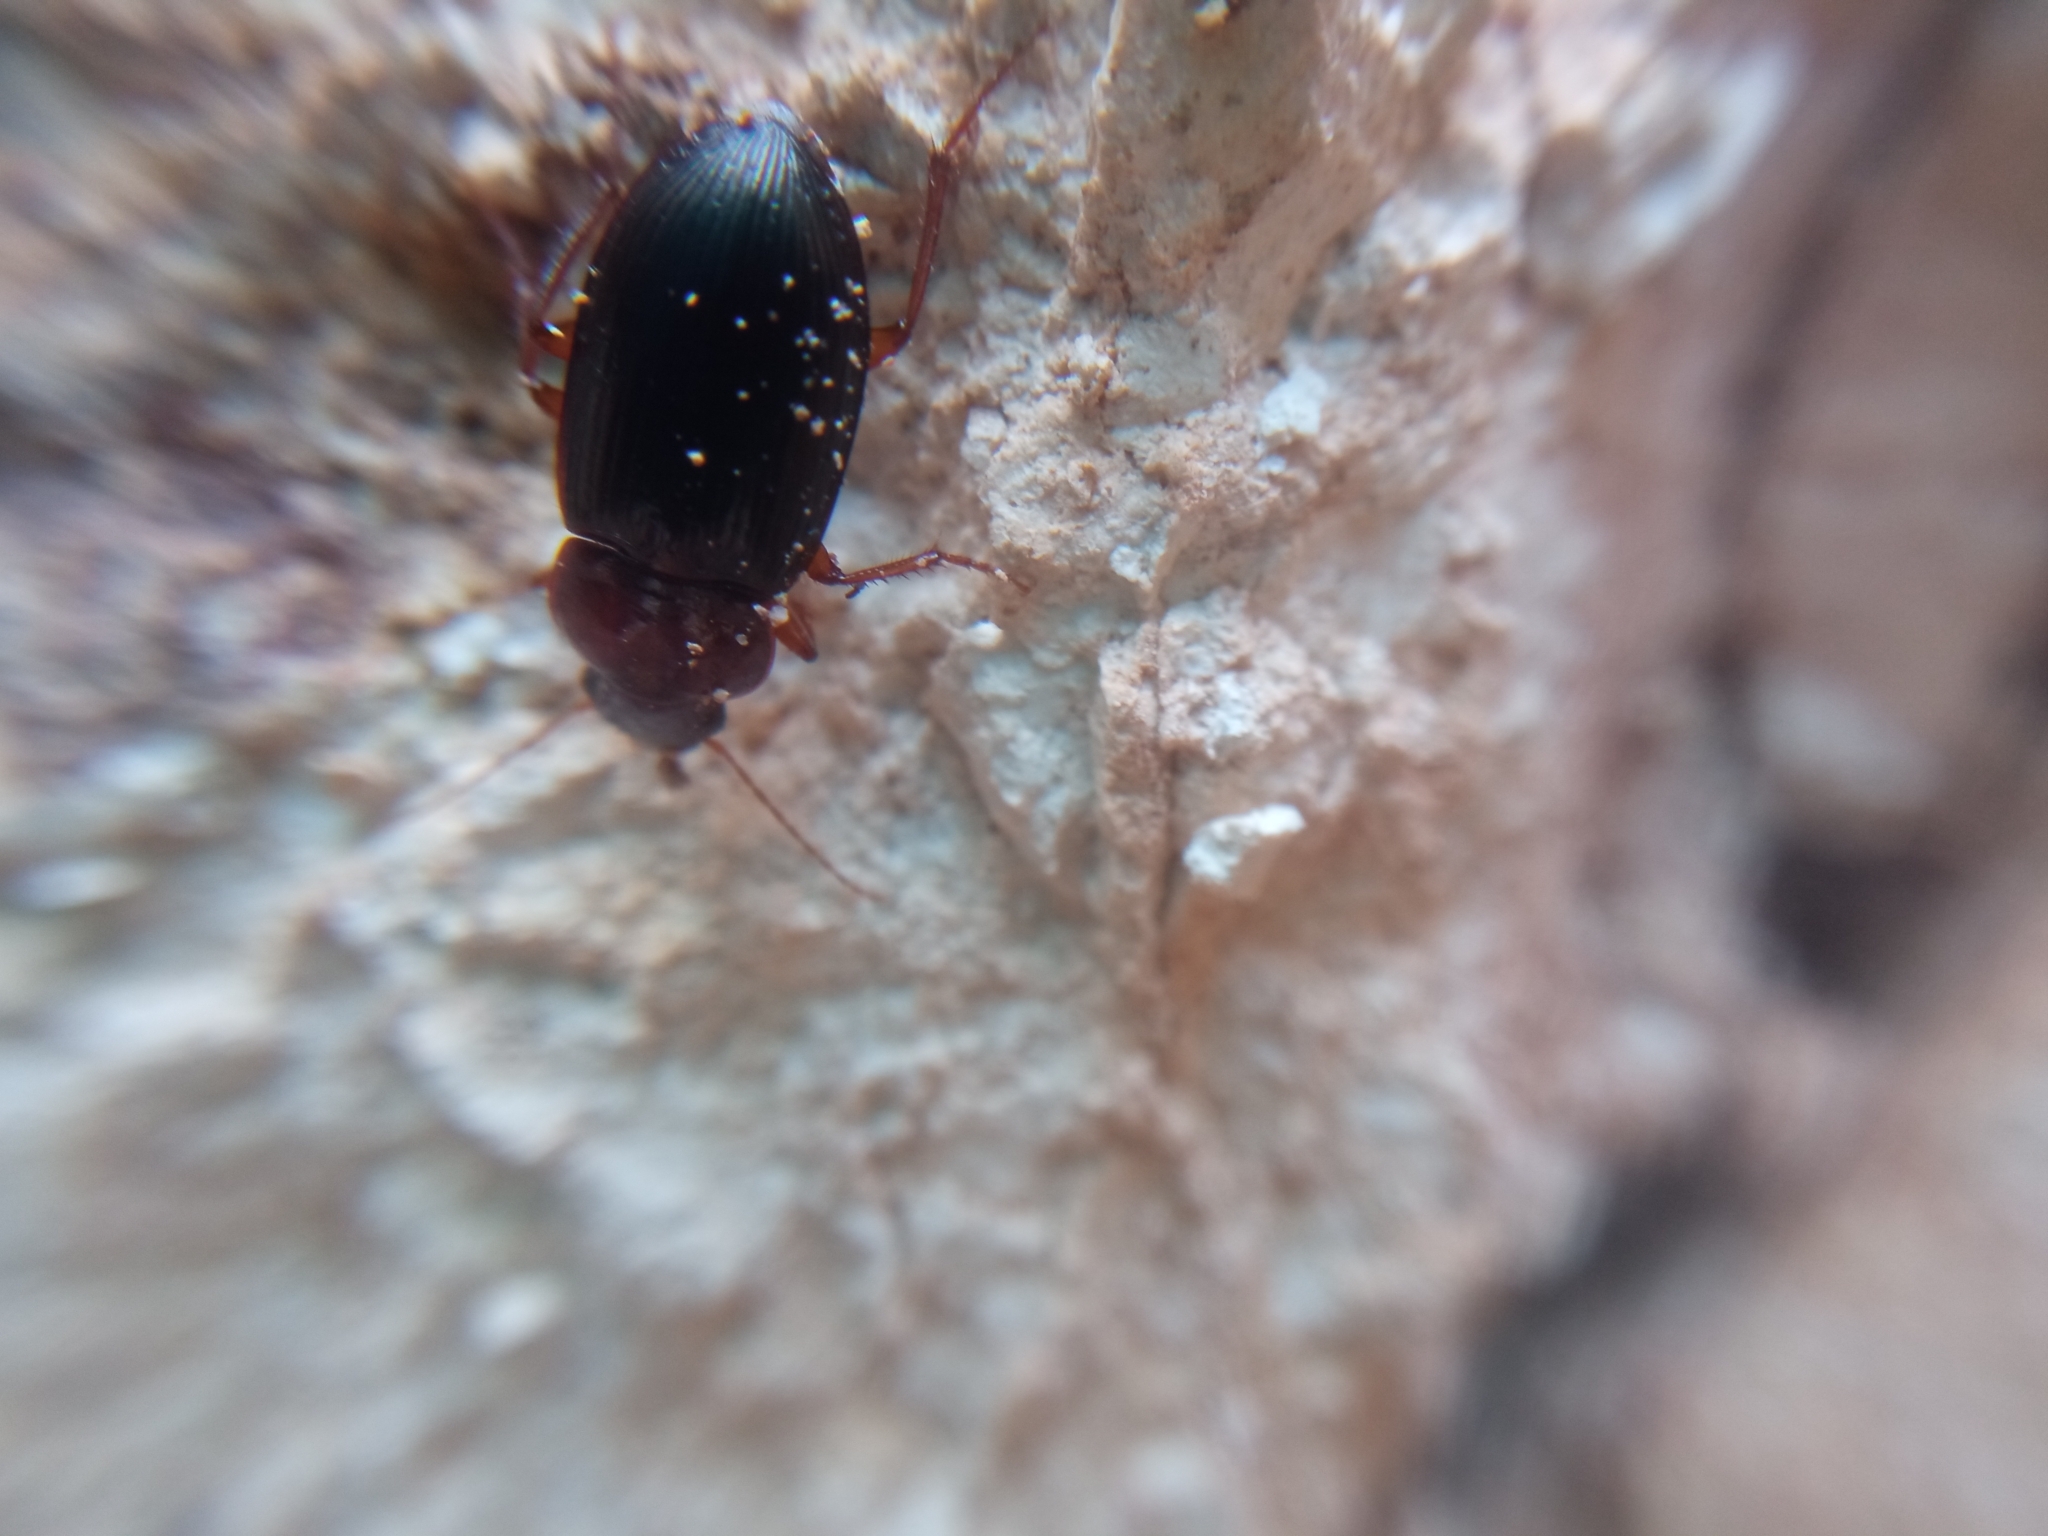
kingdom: Animalia
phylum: Arthropoda
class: Insecta
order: Coleoptera
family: Carabidae
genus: Calathus
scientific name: Calathus ruficollis
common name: Red-collared harp ground beetle
